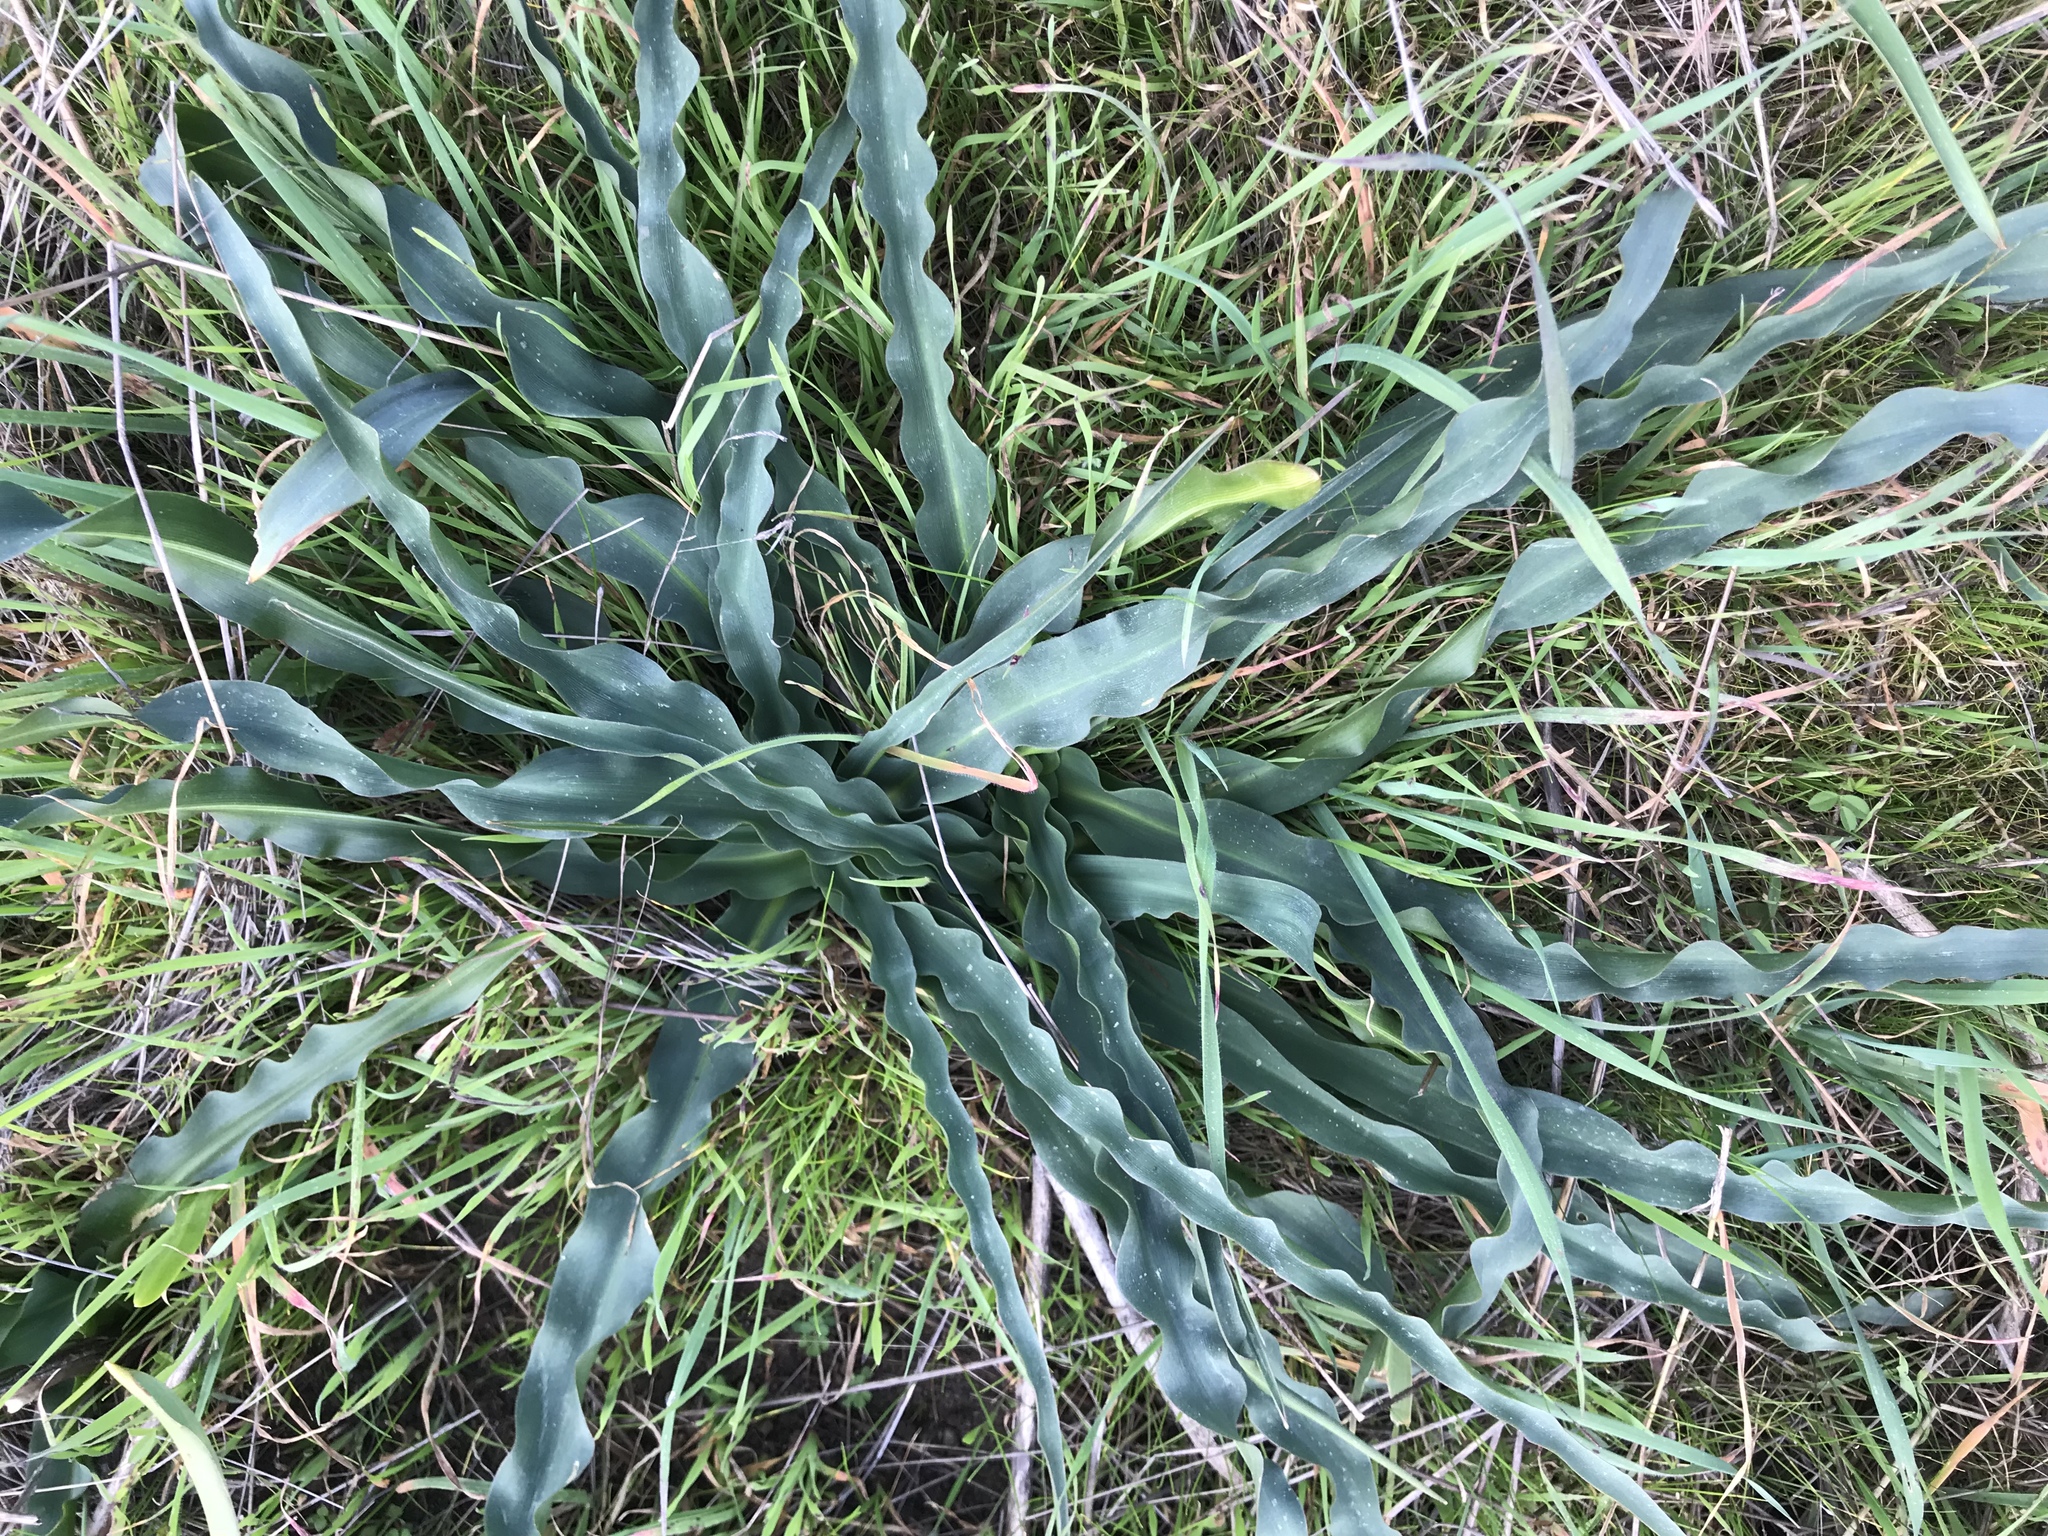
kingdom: Plantae
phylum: Tracheophyta
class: Liliopsida
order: Asparagales
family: Asparagaceae
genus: Chlorogalum
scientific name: Chlorogalum pomeridianum
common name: Amole
